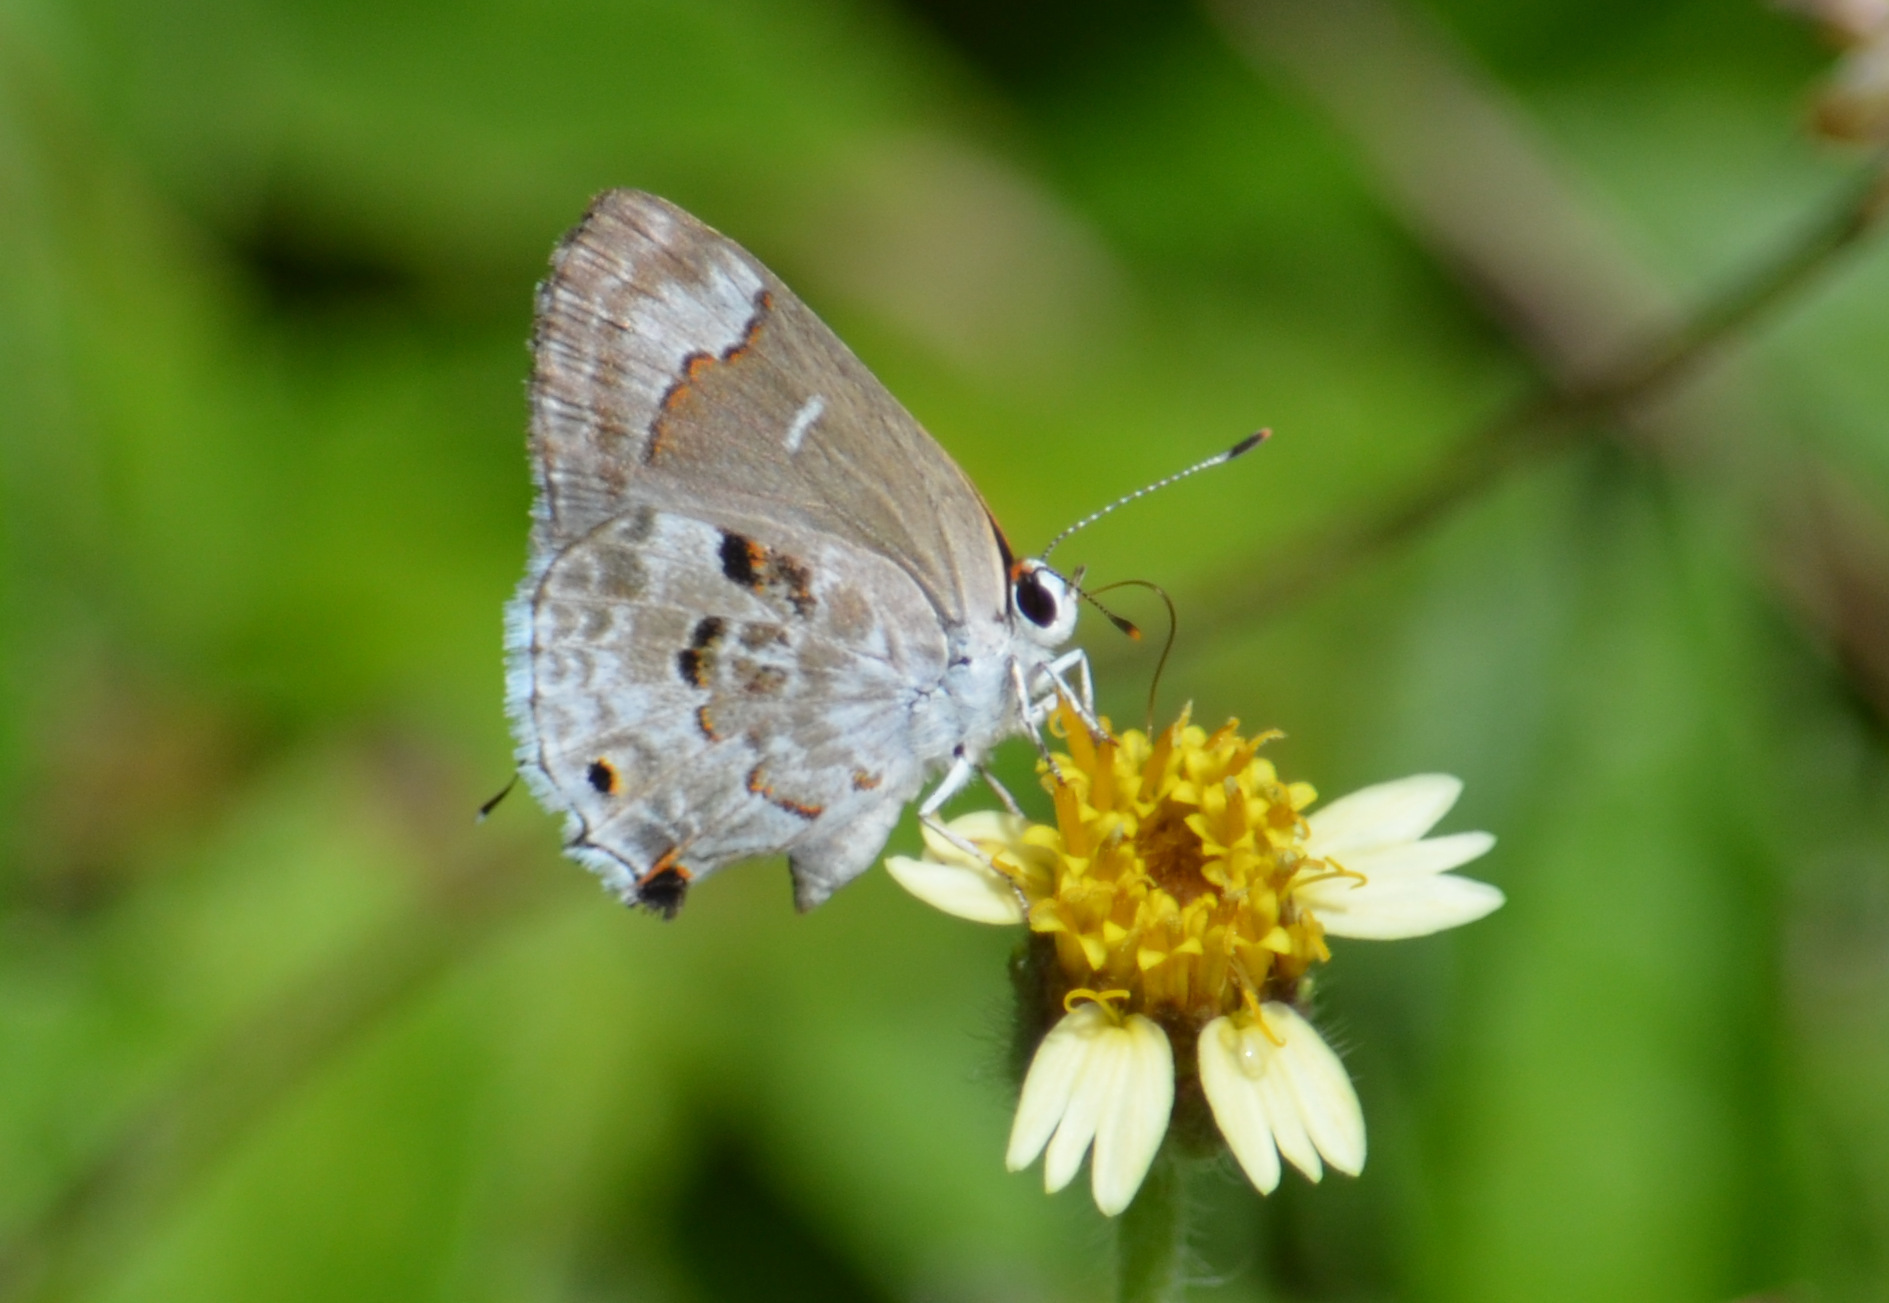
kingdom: Animalia
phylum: Arthropoda
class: Insecta
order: Lepidoptera
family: Lycaenidae
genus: Strymon
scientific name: Strymon mulucha
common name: Mottled scrub-hairstreak
